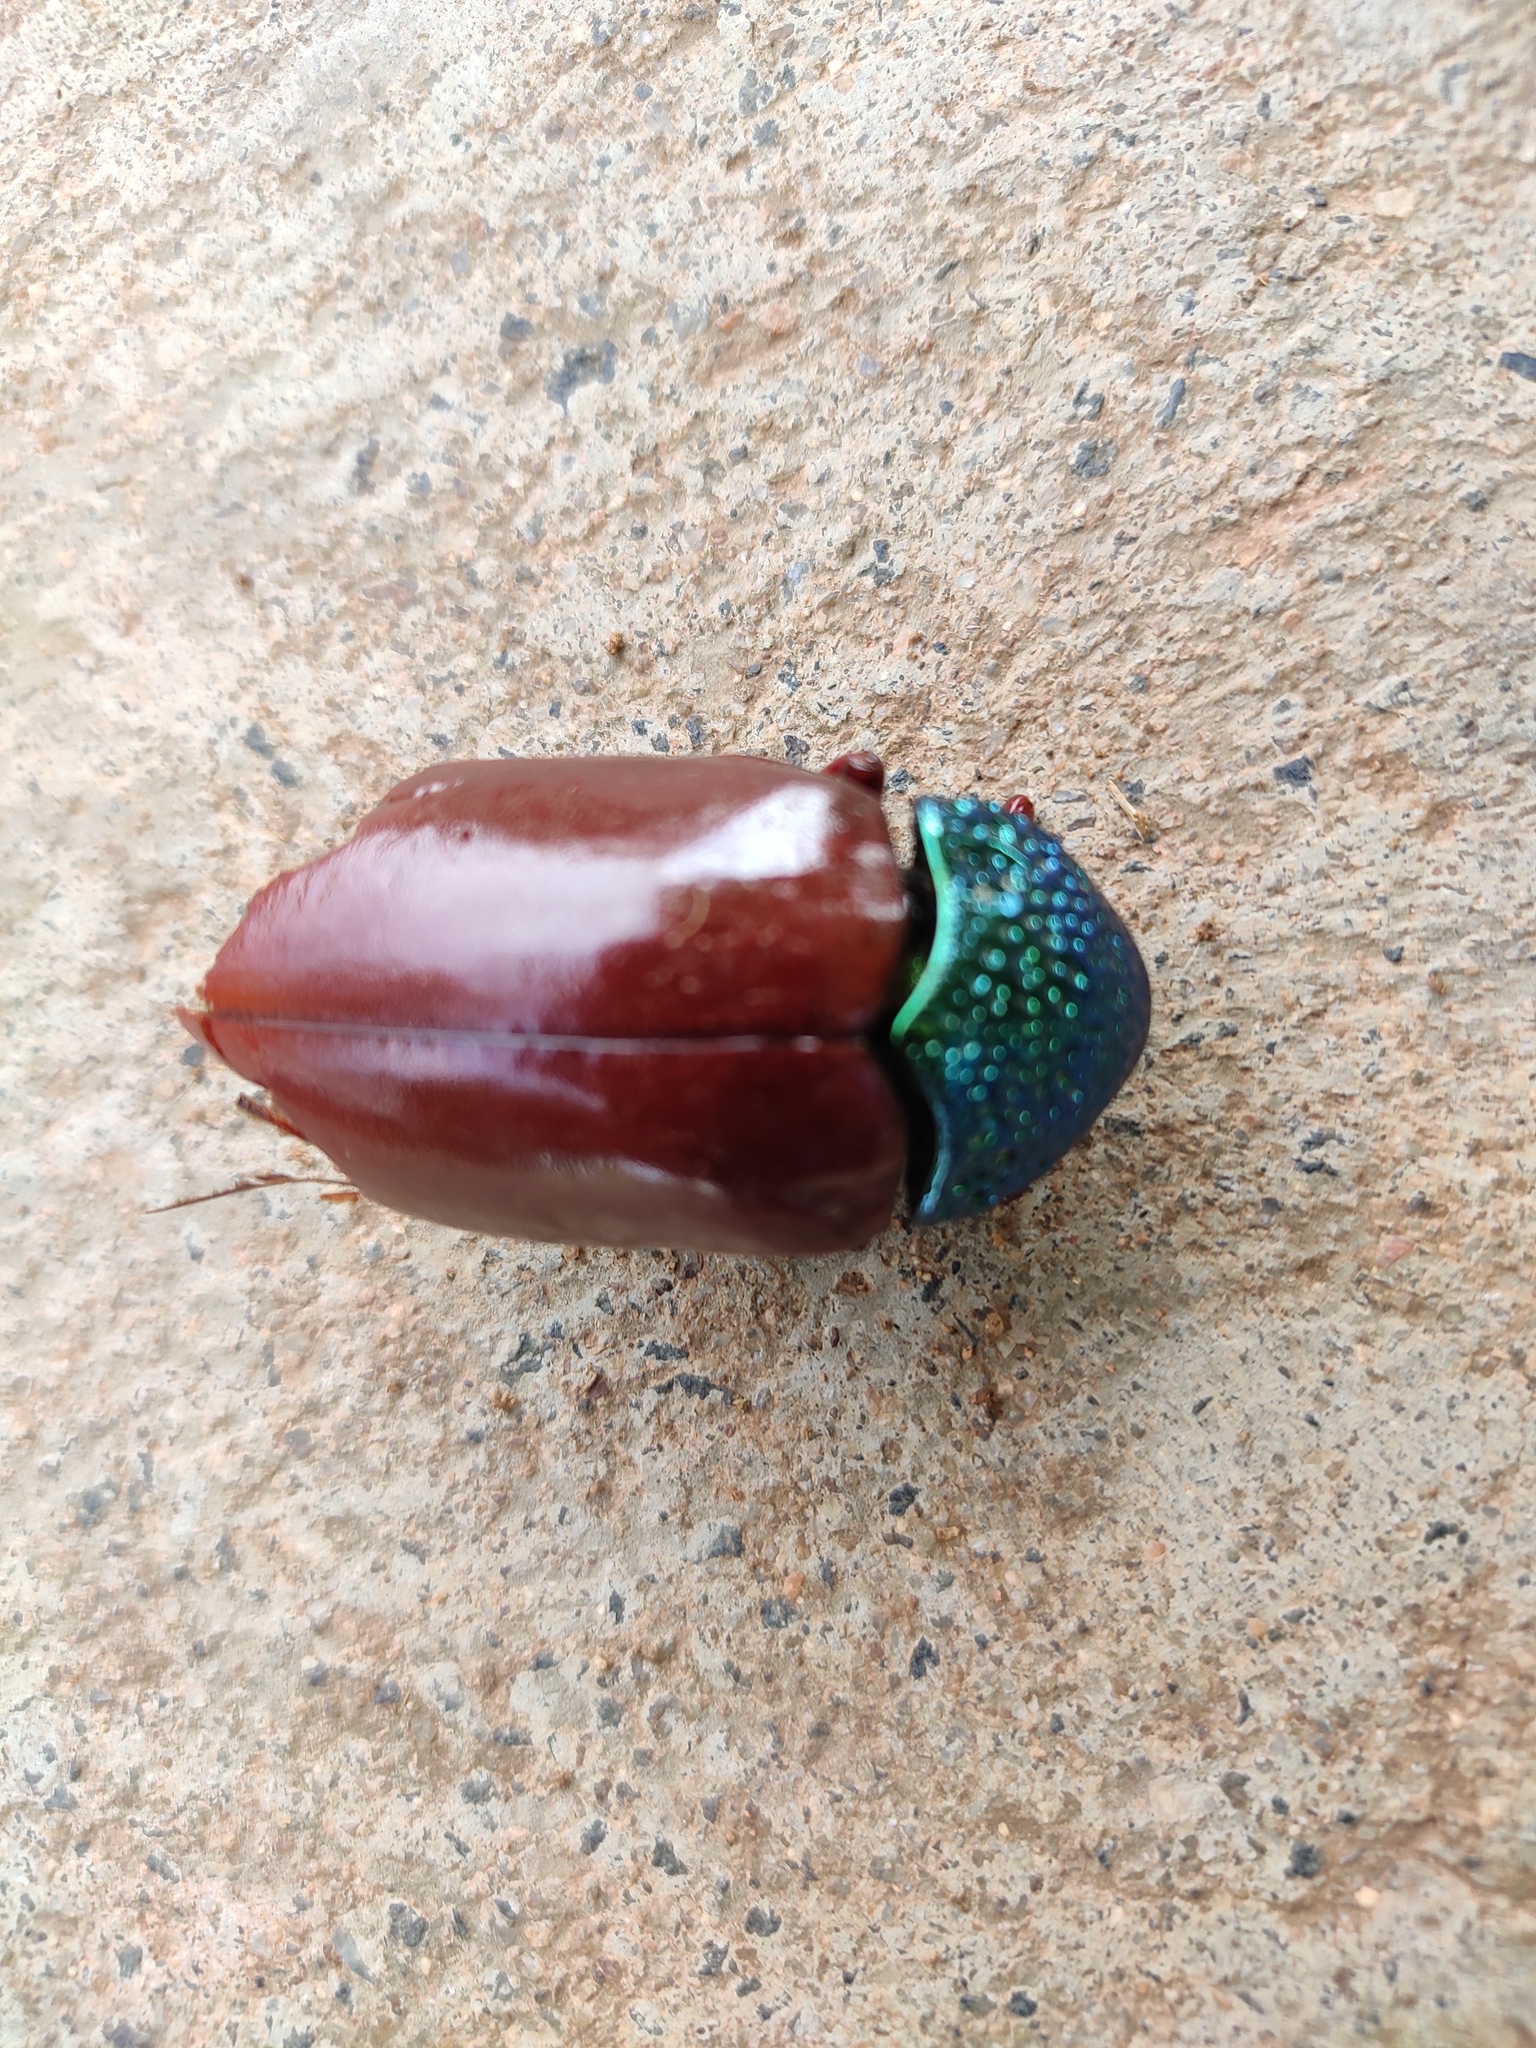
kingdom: Animalia
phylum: Arthropoda
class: Insecta
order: Coleoptera
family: Buprestidae
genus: Sternocera
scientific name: Sternocera chrysis
